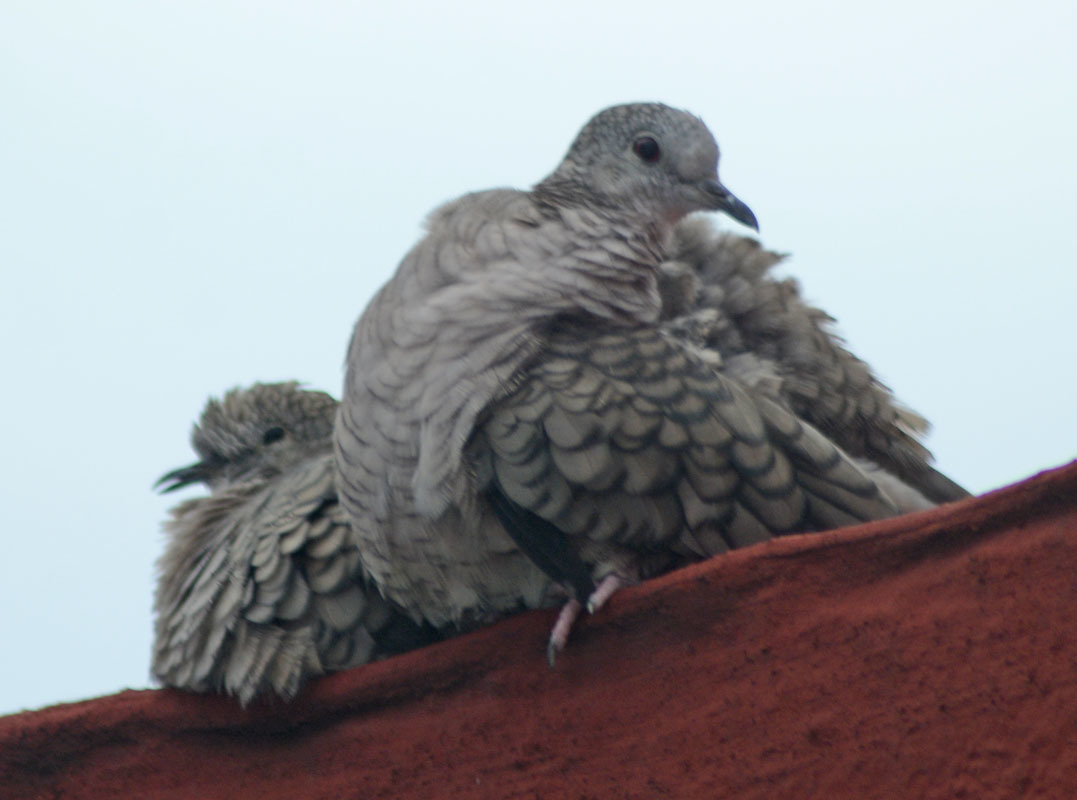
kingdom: Animalia
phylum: Chordata
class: Aves
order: Columbiformes
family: Columbidae
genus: Columbina
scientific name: Columbina inca
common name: Inca dove
